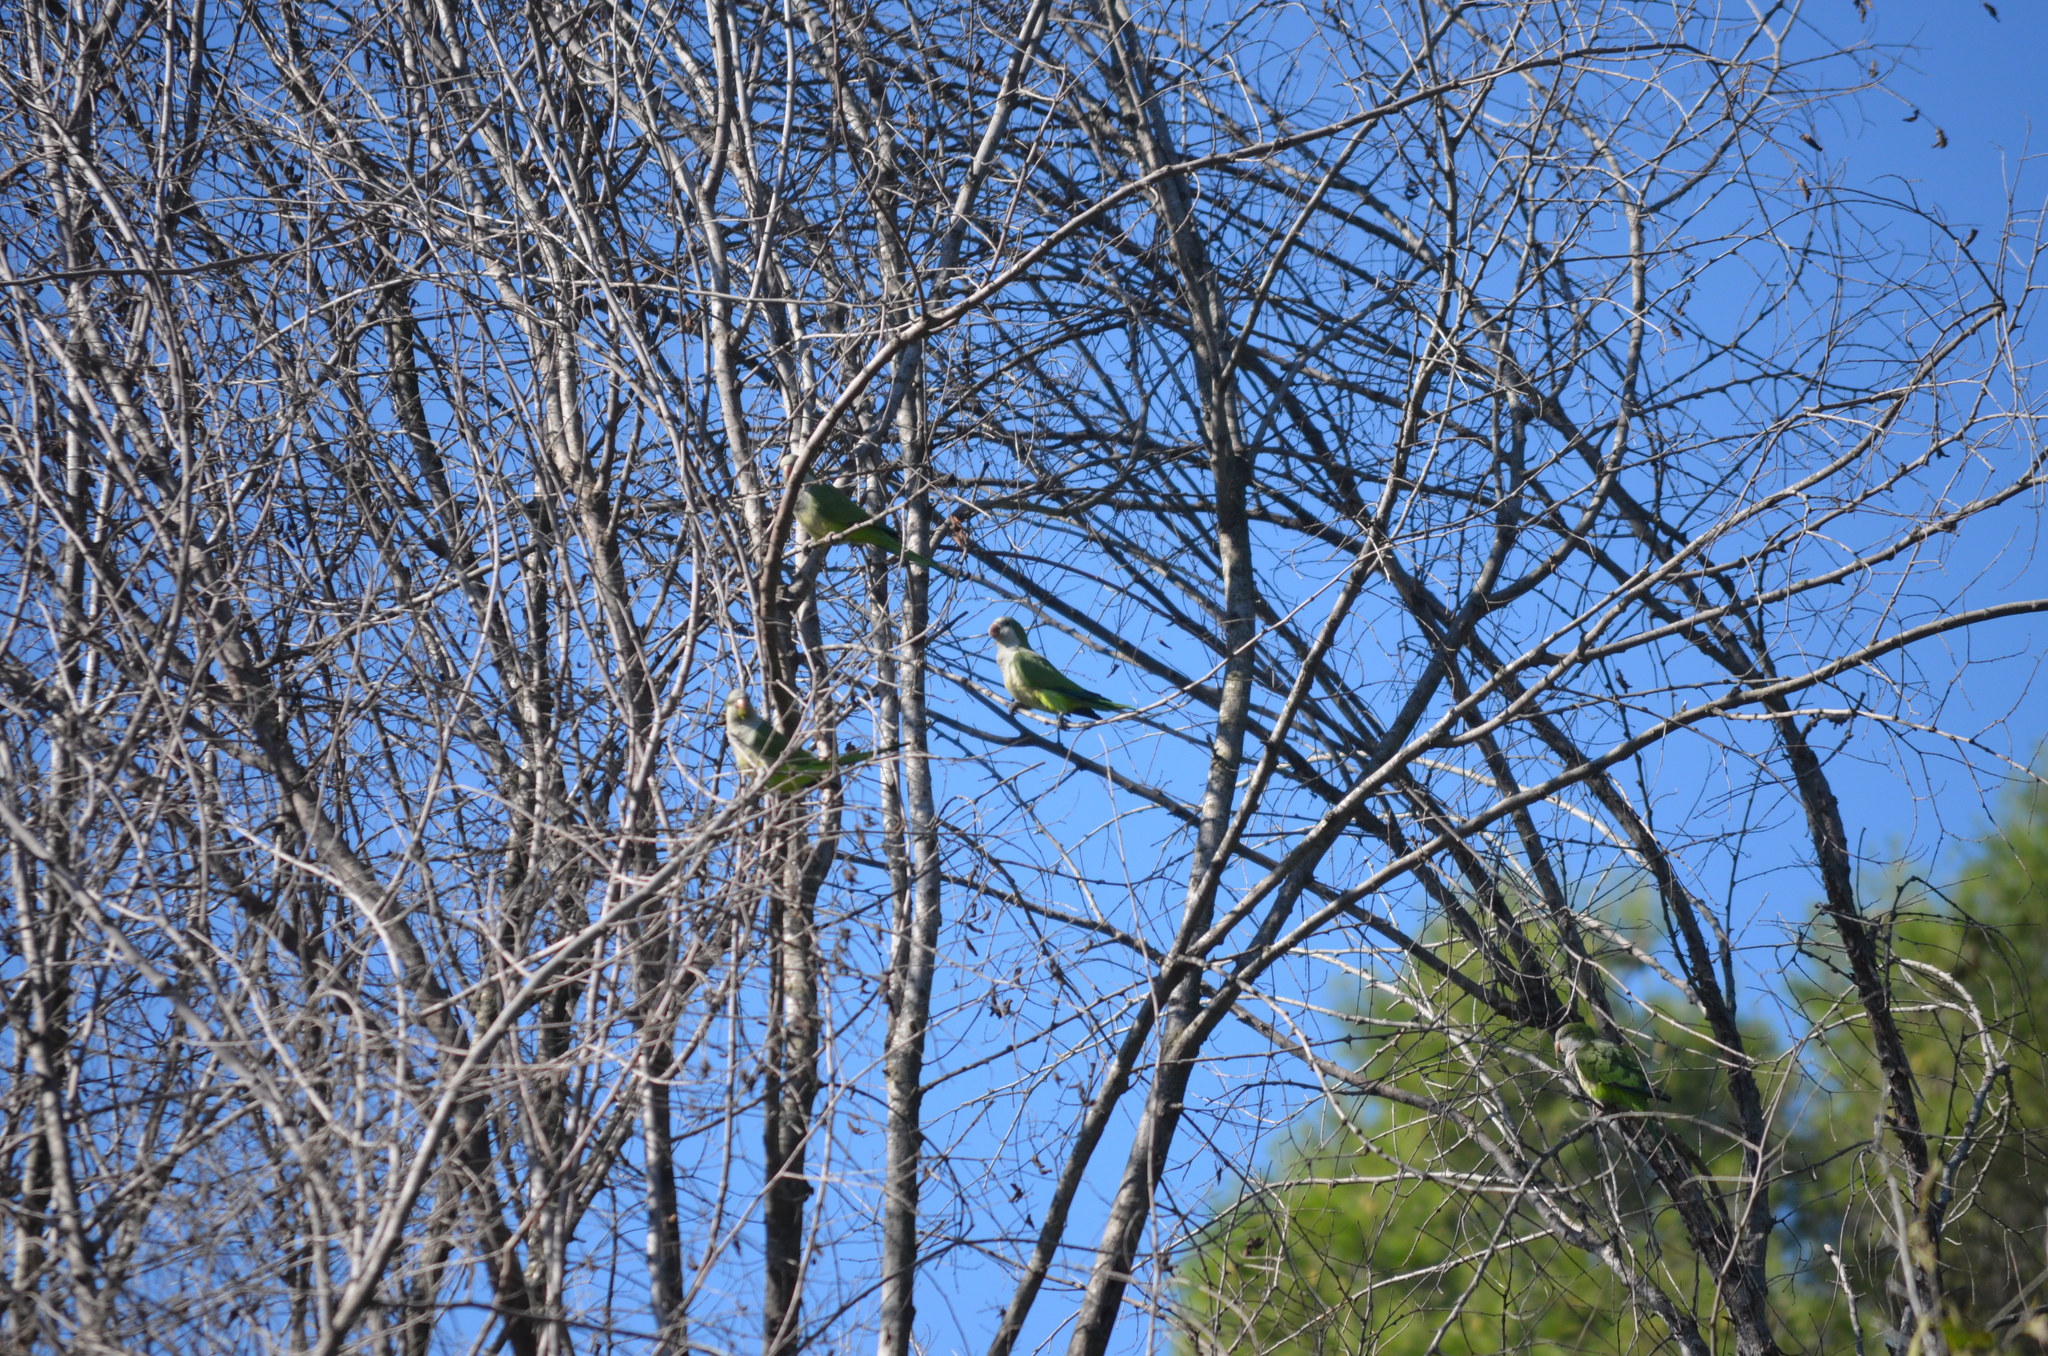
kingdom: Animalia
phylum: Chordata
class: Aves
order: Psittaciformes
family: Psittacidae
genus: Myiopsitta
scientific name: Myiopsitta monachus
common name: Monk parakeet
